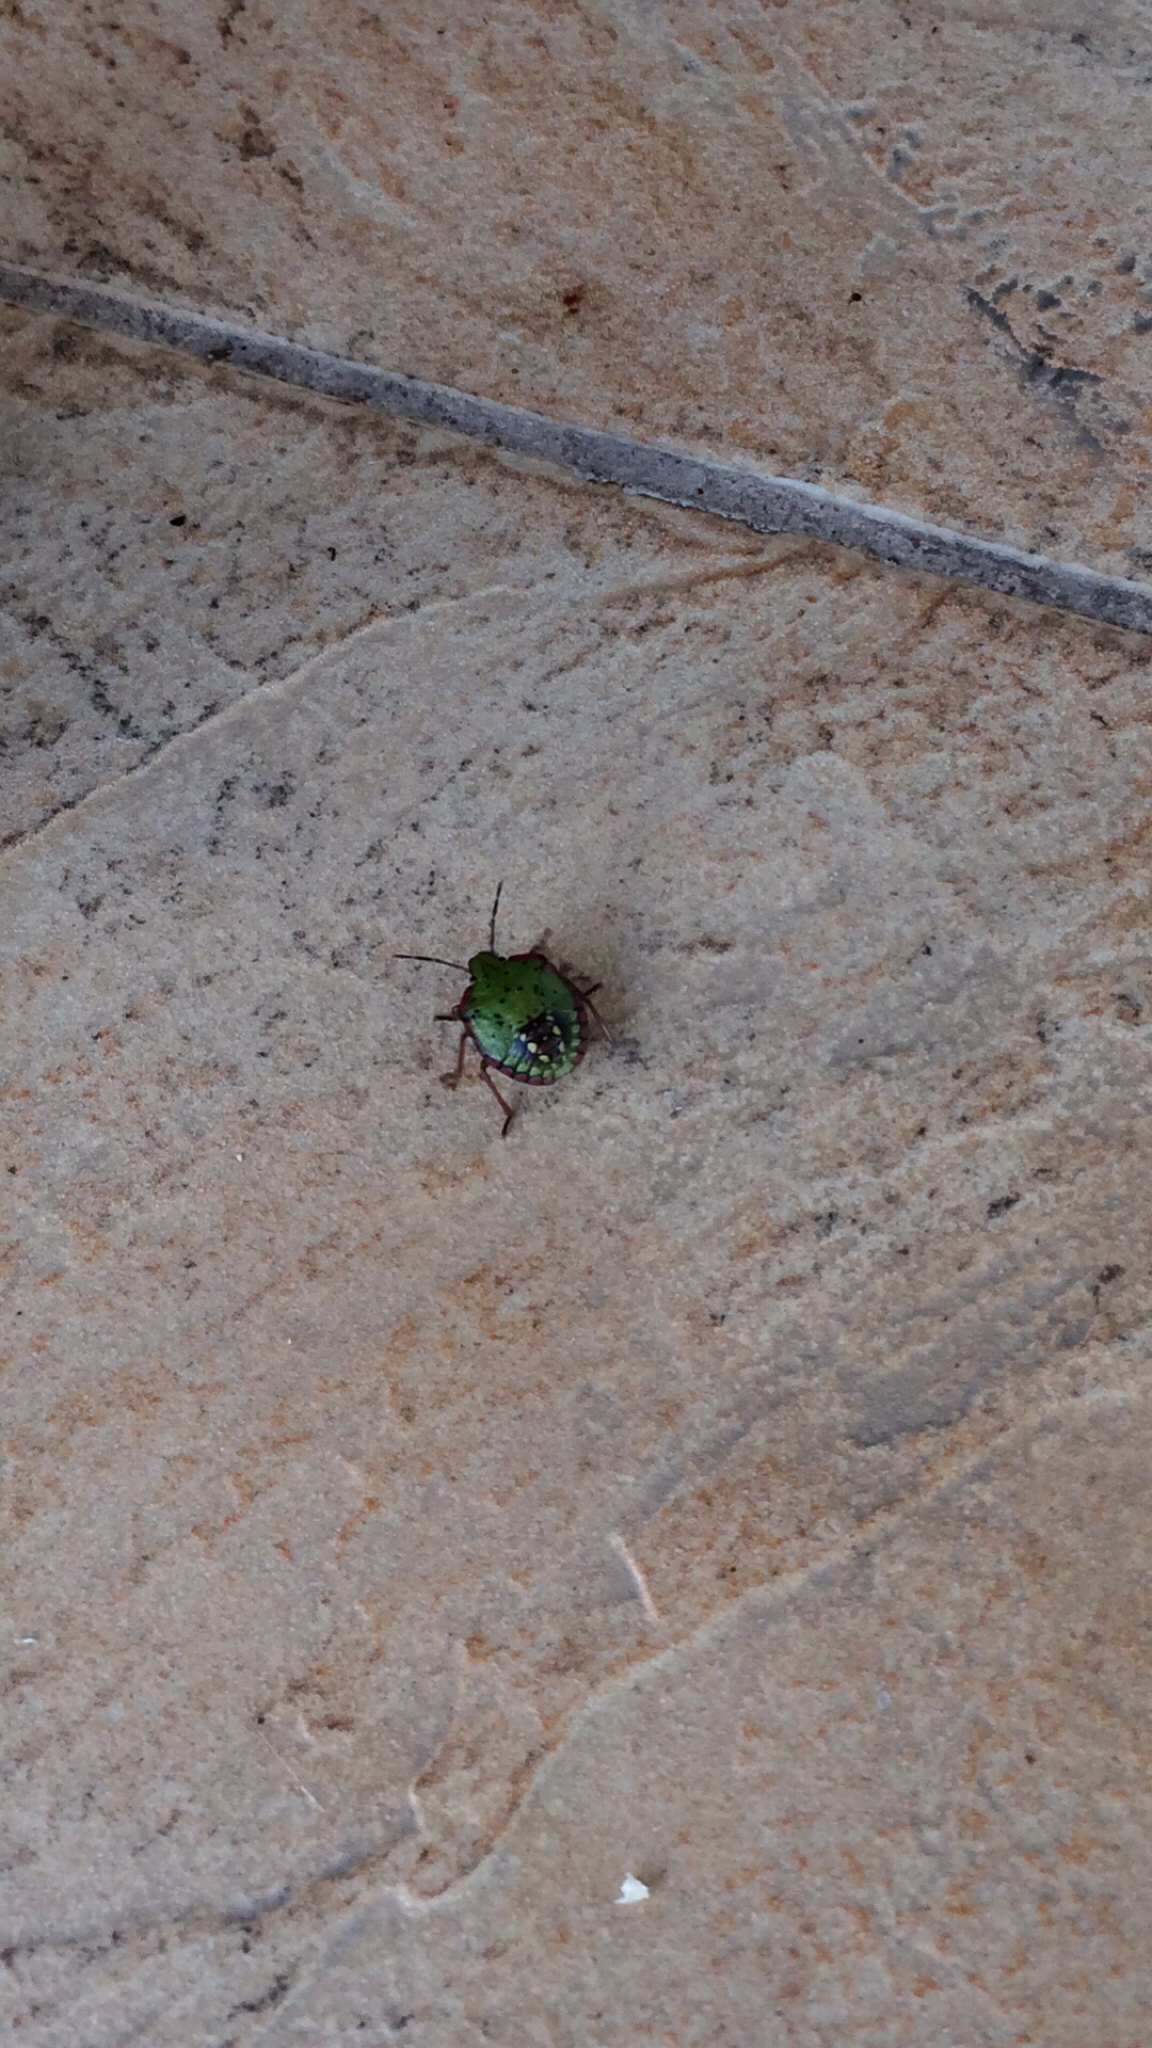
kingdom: Animalia
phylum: Arthropoda
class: Insecta
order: Hemiptera
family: Pentatomidae
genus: Nezara
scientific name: Nezara viridula
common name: Southern green stink bug
